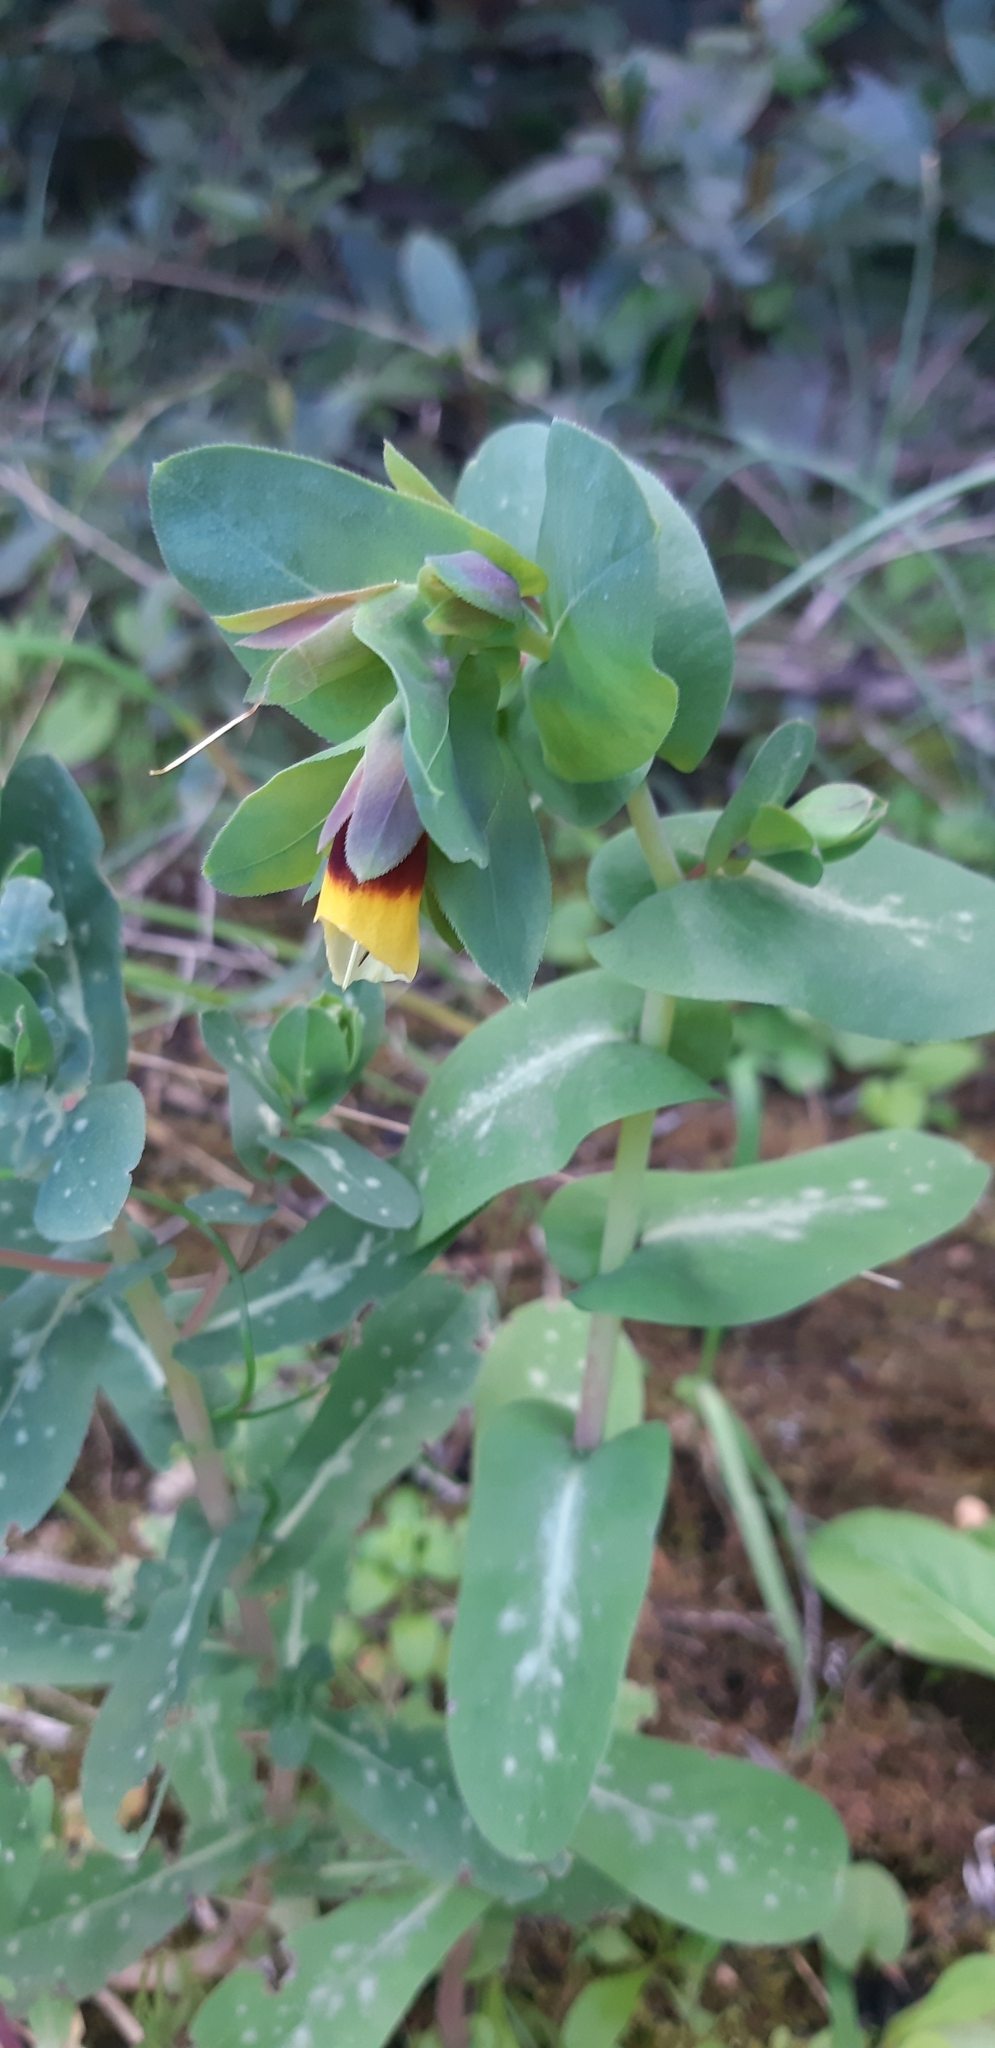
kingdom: Plantae
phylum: Tracheophyta
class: Magnoliopsida
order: Boraginales
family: Boraginaceae
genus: Cerinthe
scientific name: Cerinthe major
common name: Greater honeywort
